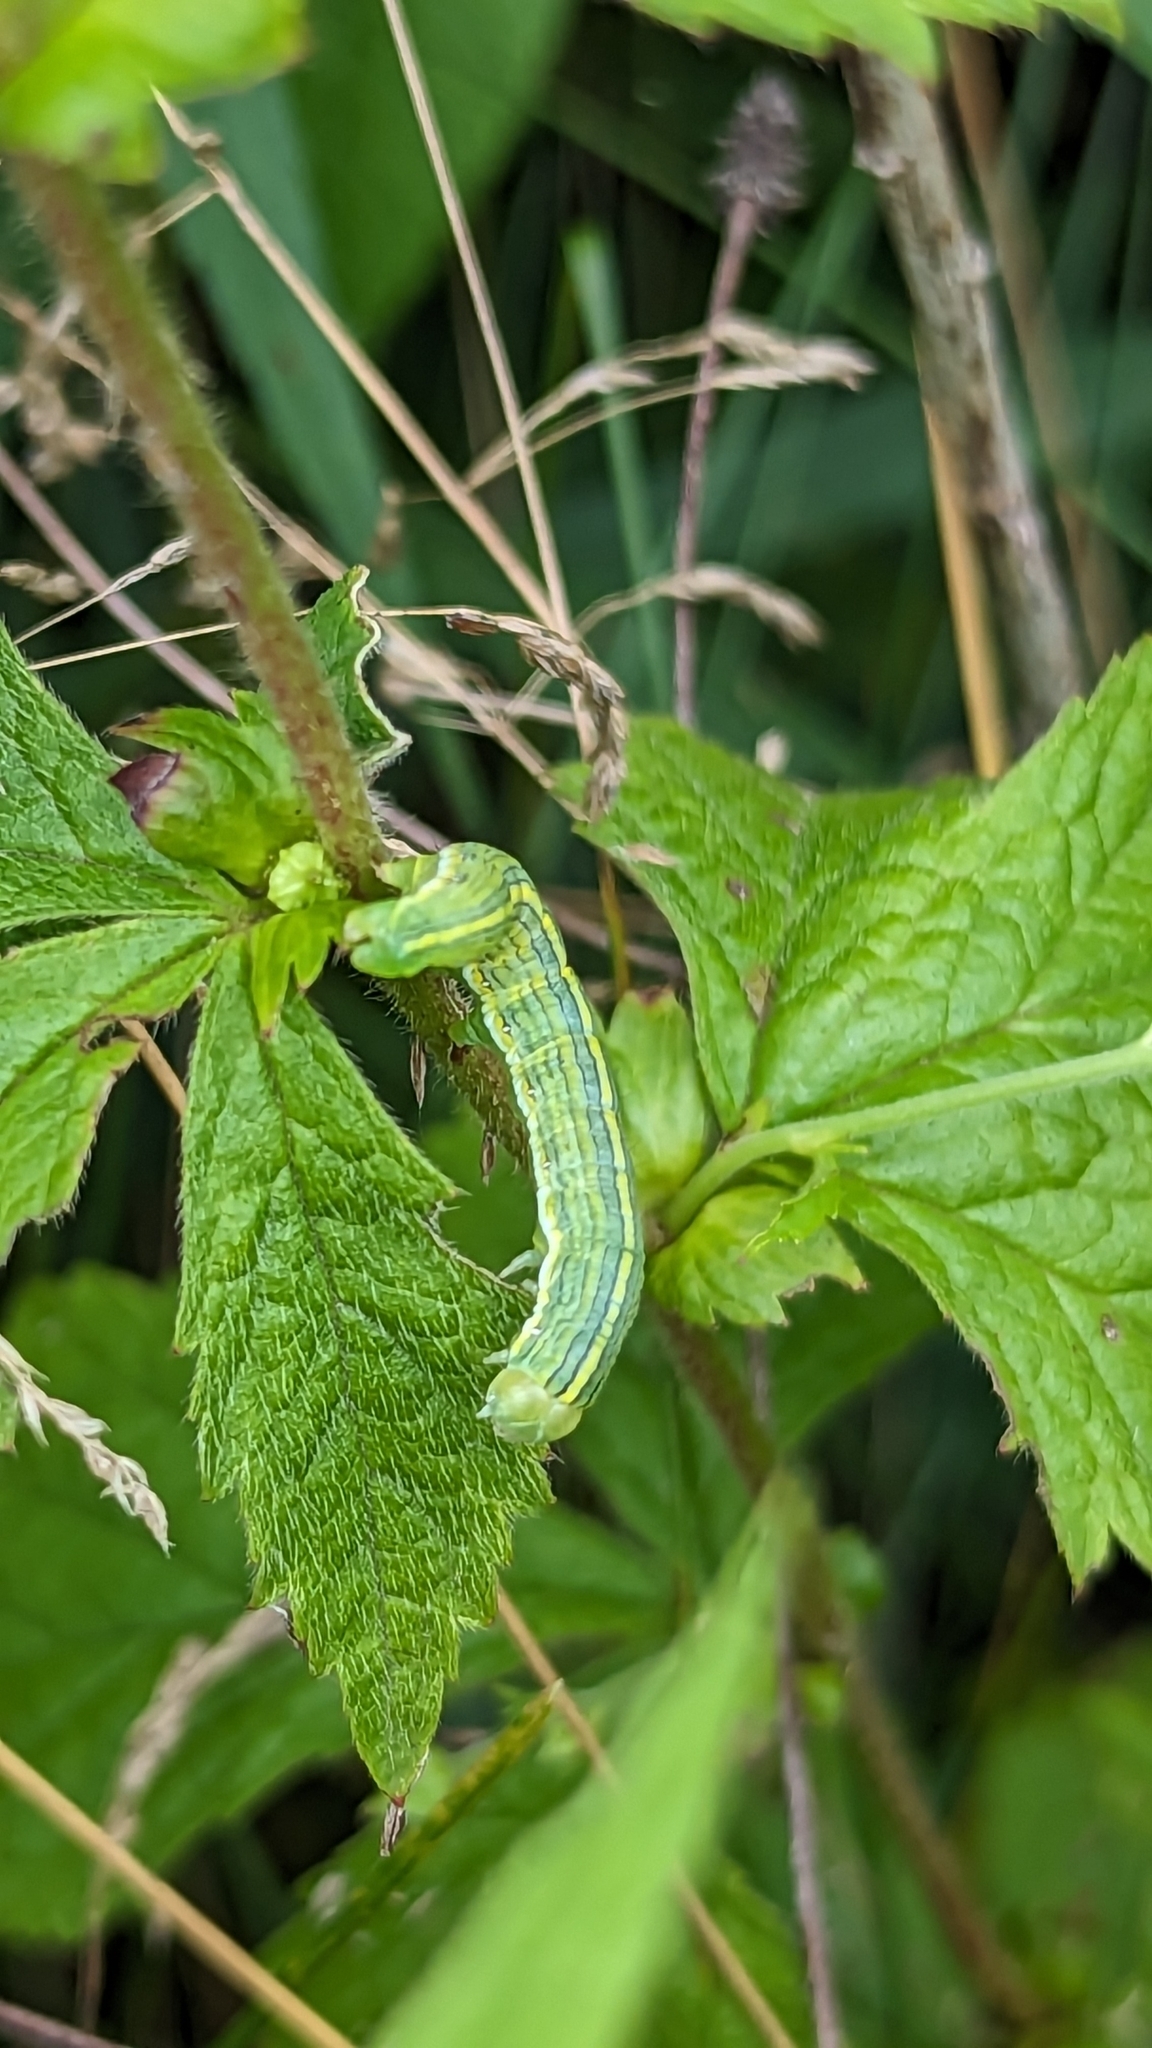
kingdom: Animalia
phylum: Arthropoda
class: Insecta
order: Lepidoptera
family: Noctuidae
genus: Cucullia
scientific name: Cucullia asteroides
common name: Asteroid moth
